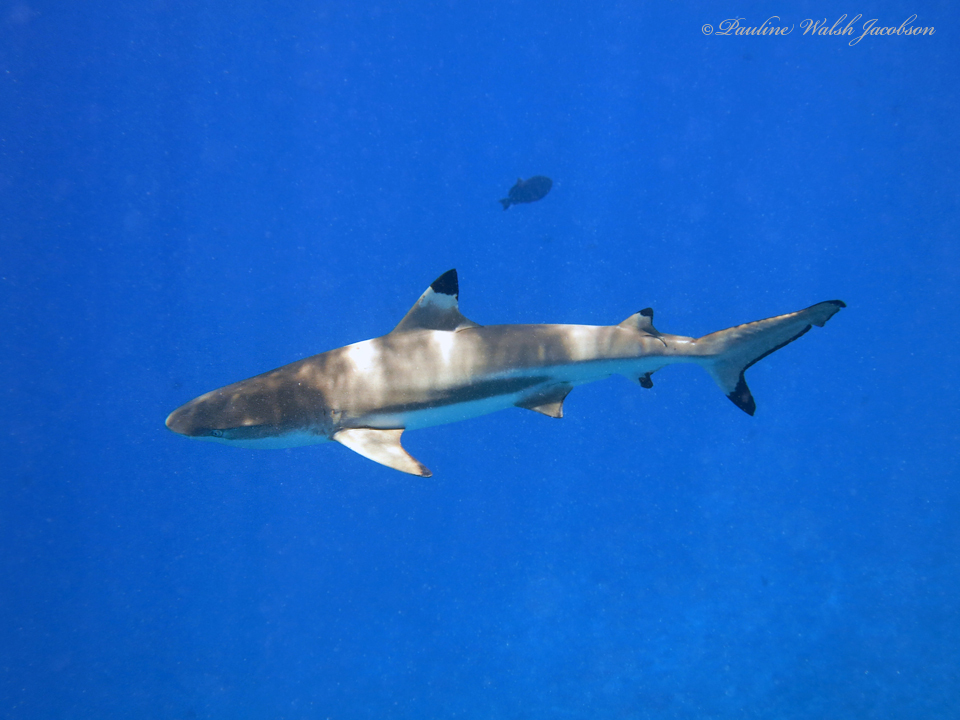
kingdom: Animalia
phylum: Chordata
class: Elasmobranchii
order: Carcharhiniformes
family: Carcharhinidae
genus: Carcharhinus
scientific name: Carcharhinus melanopterus
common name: Blacktip reef shark
